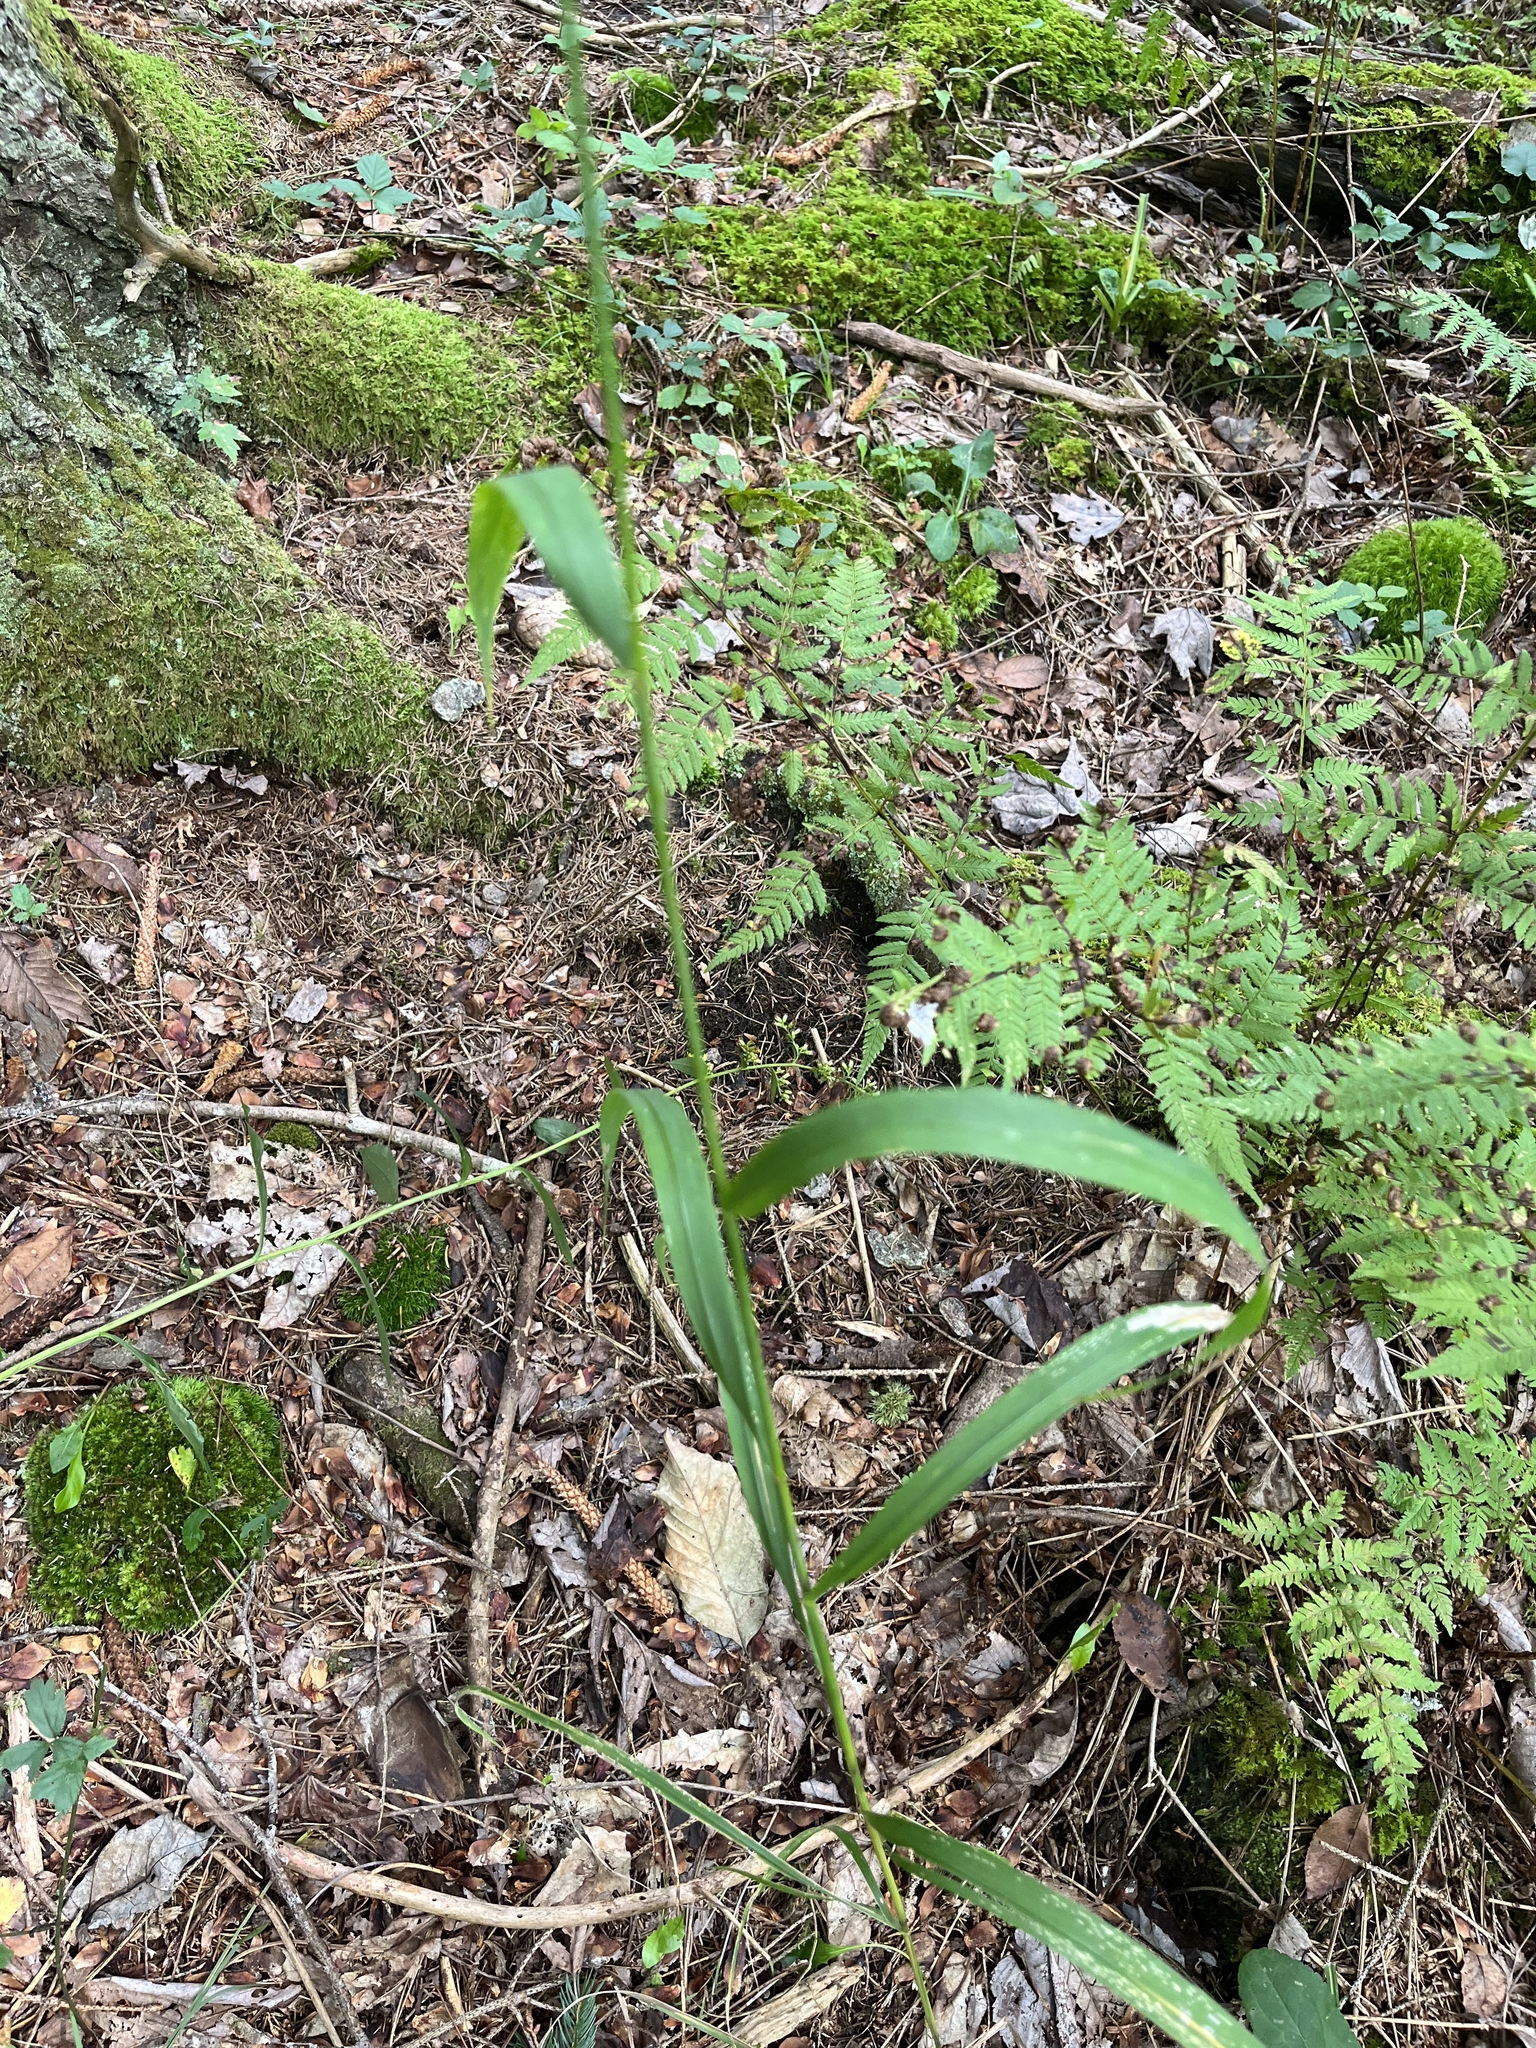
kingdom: Plantae
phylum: Tracheophyta
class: Liliopsida
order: Poales
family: Poaceae
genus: Cinna
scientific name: Cinna arundinacea
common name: Stout woodreed
